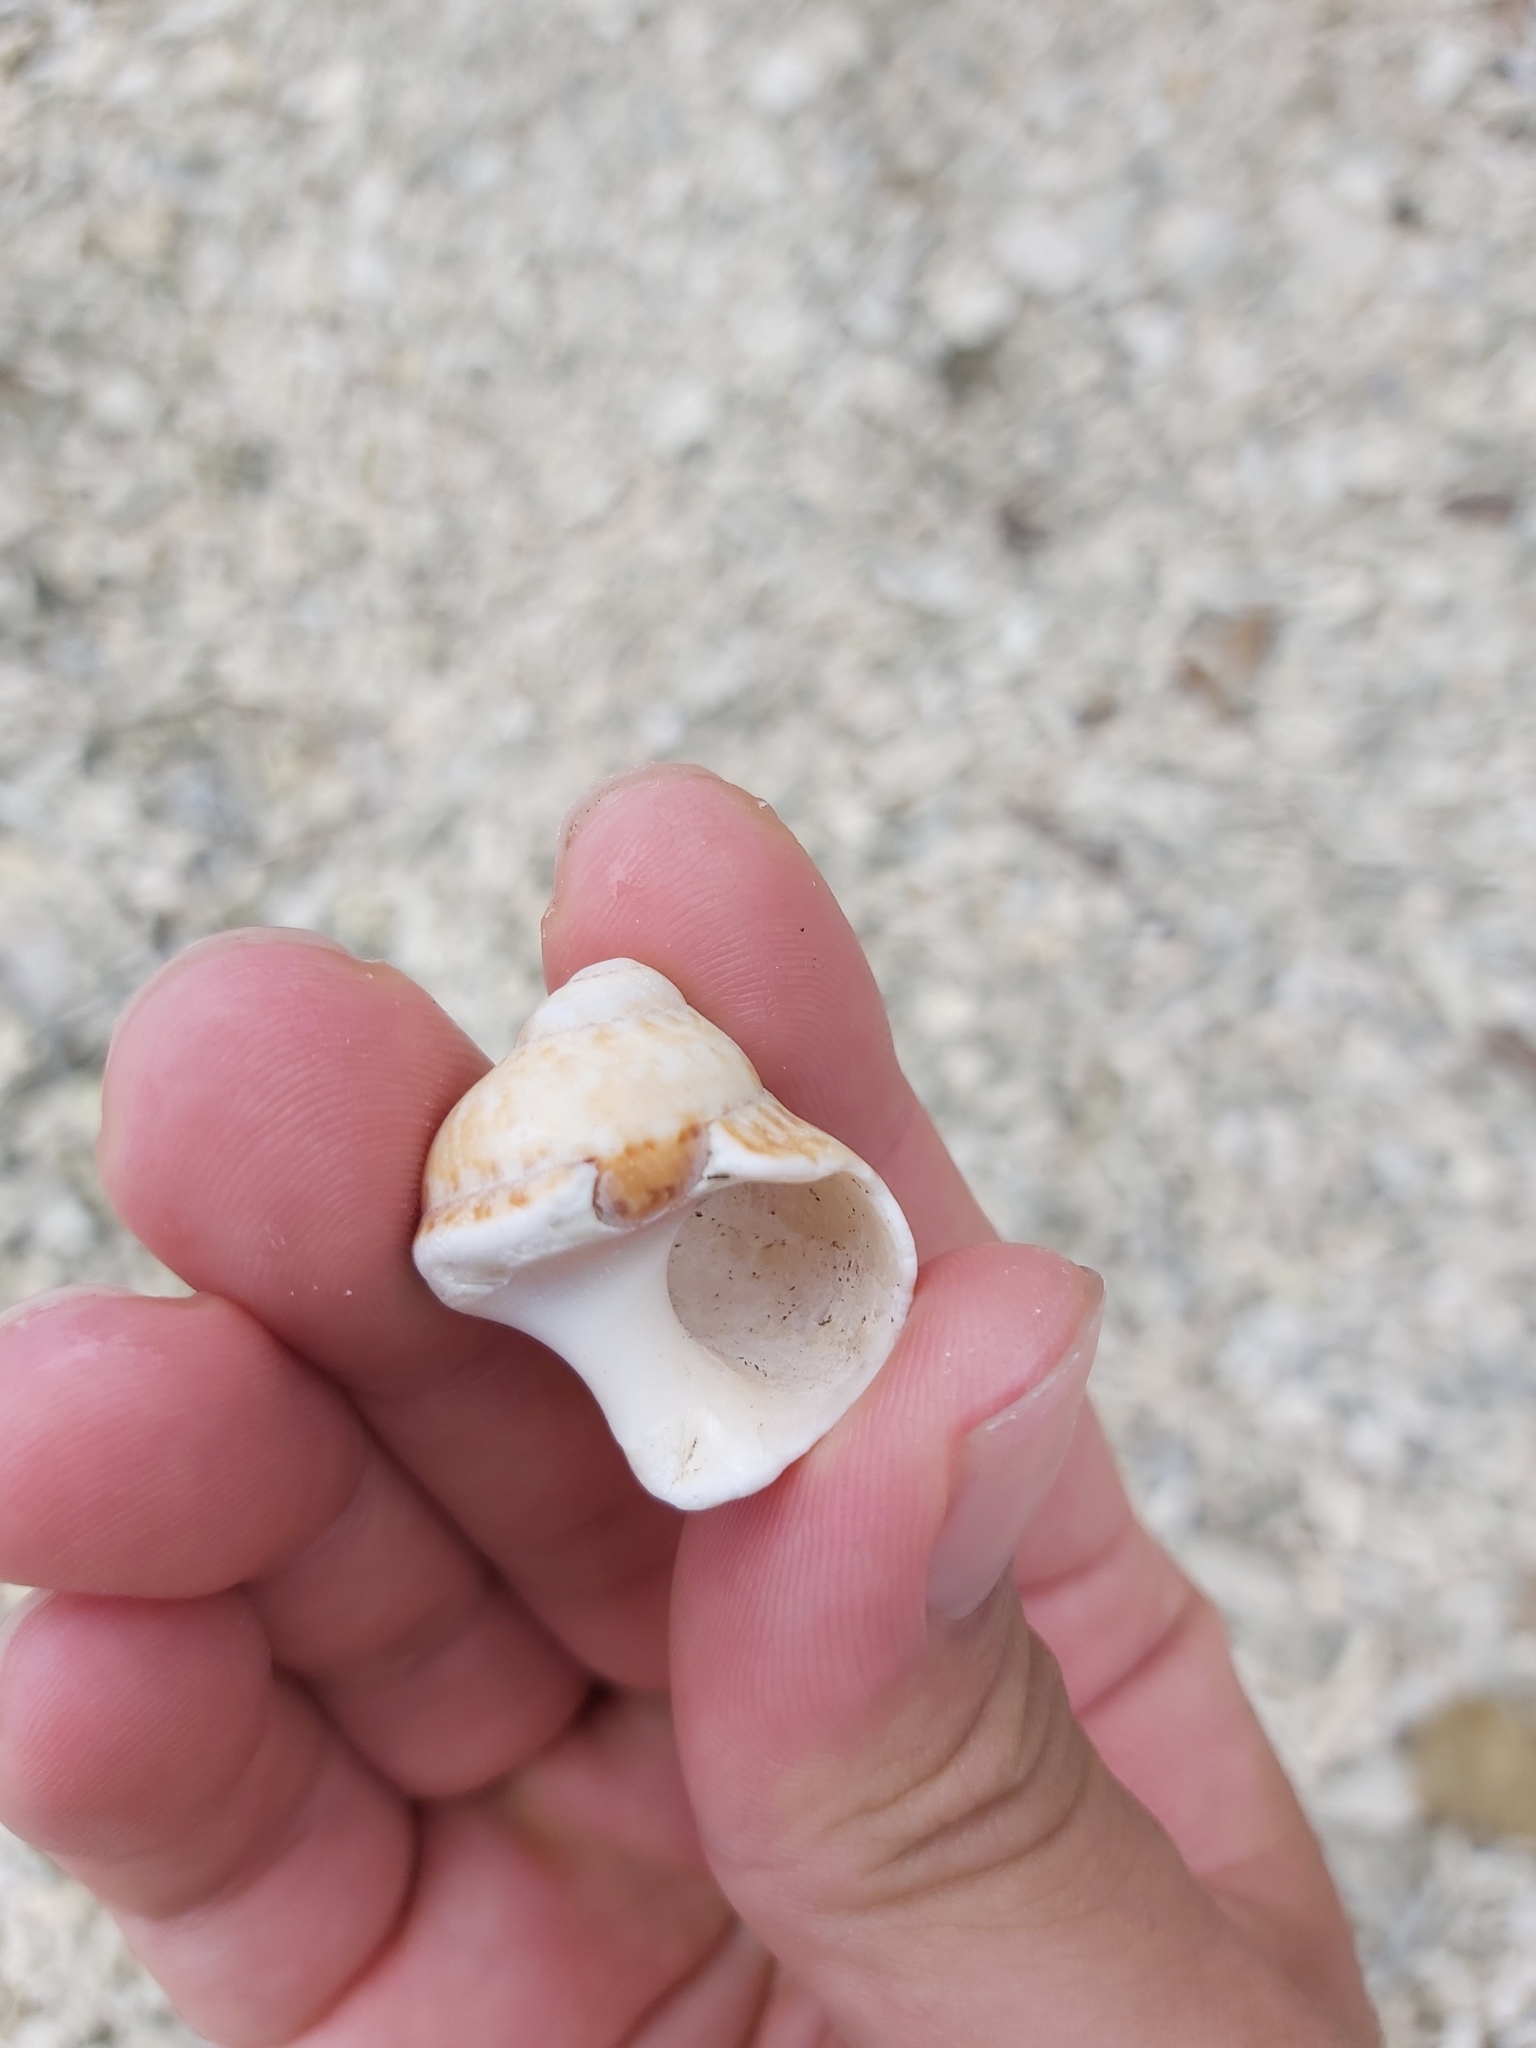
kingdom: Animalia
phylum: Mollusca
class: Gastropoda
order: Trochida
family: Turbinidae
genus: Turbo
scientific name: Turbo petholatus
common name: Cat's-eye shell
